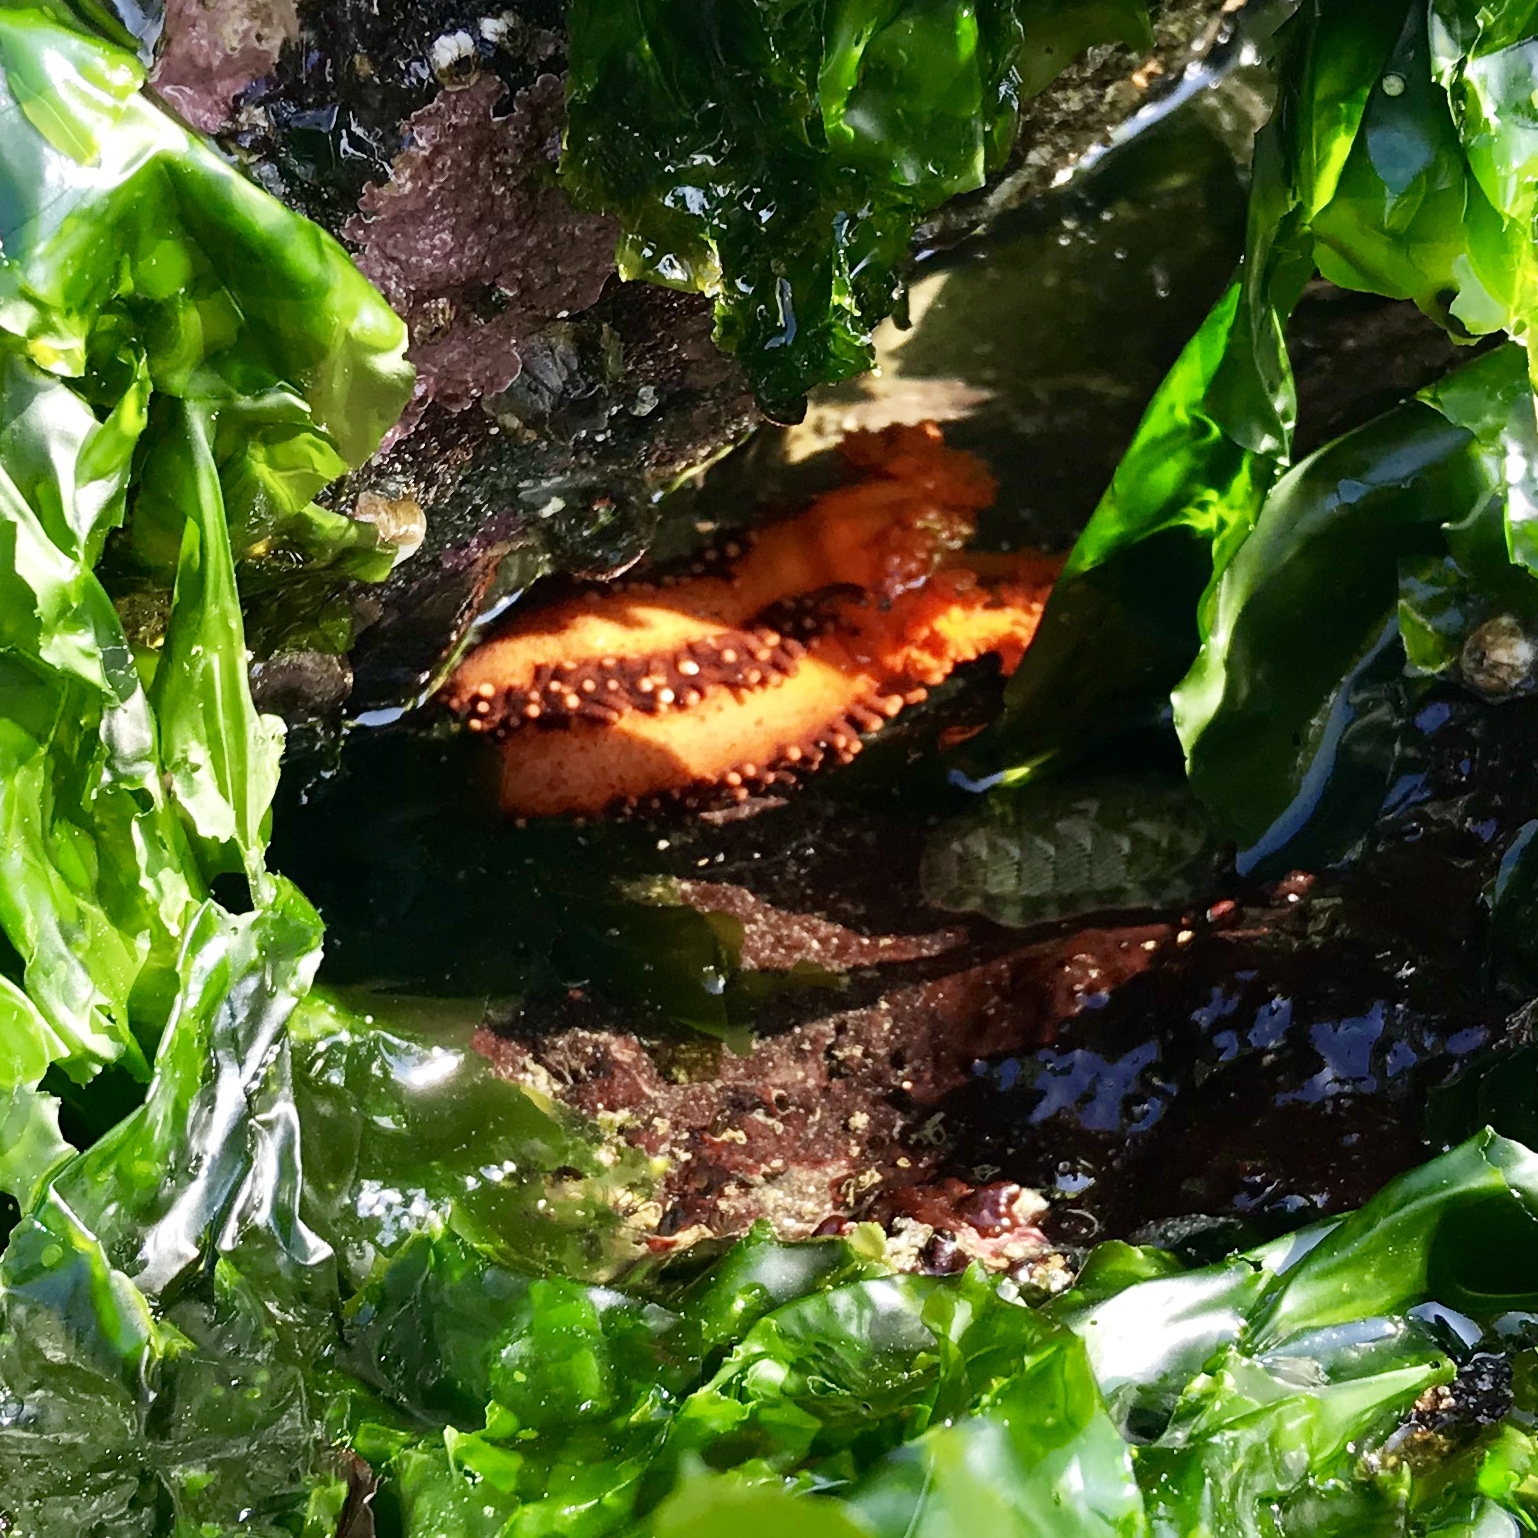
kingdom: Animalia
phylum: Echinodermata
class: Holothuroidea
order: Dendrochirotida
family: Cucumariidae
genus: Cucumaria
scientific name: Cucumaria miniata
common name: Orange sea cucumber
